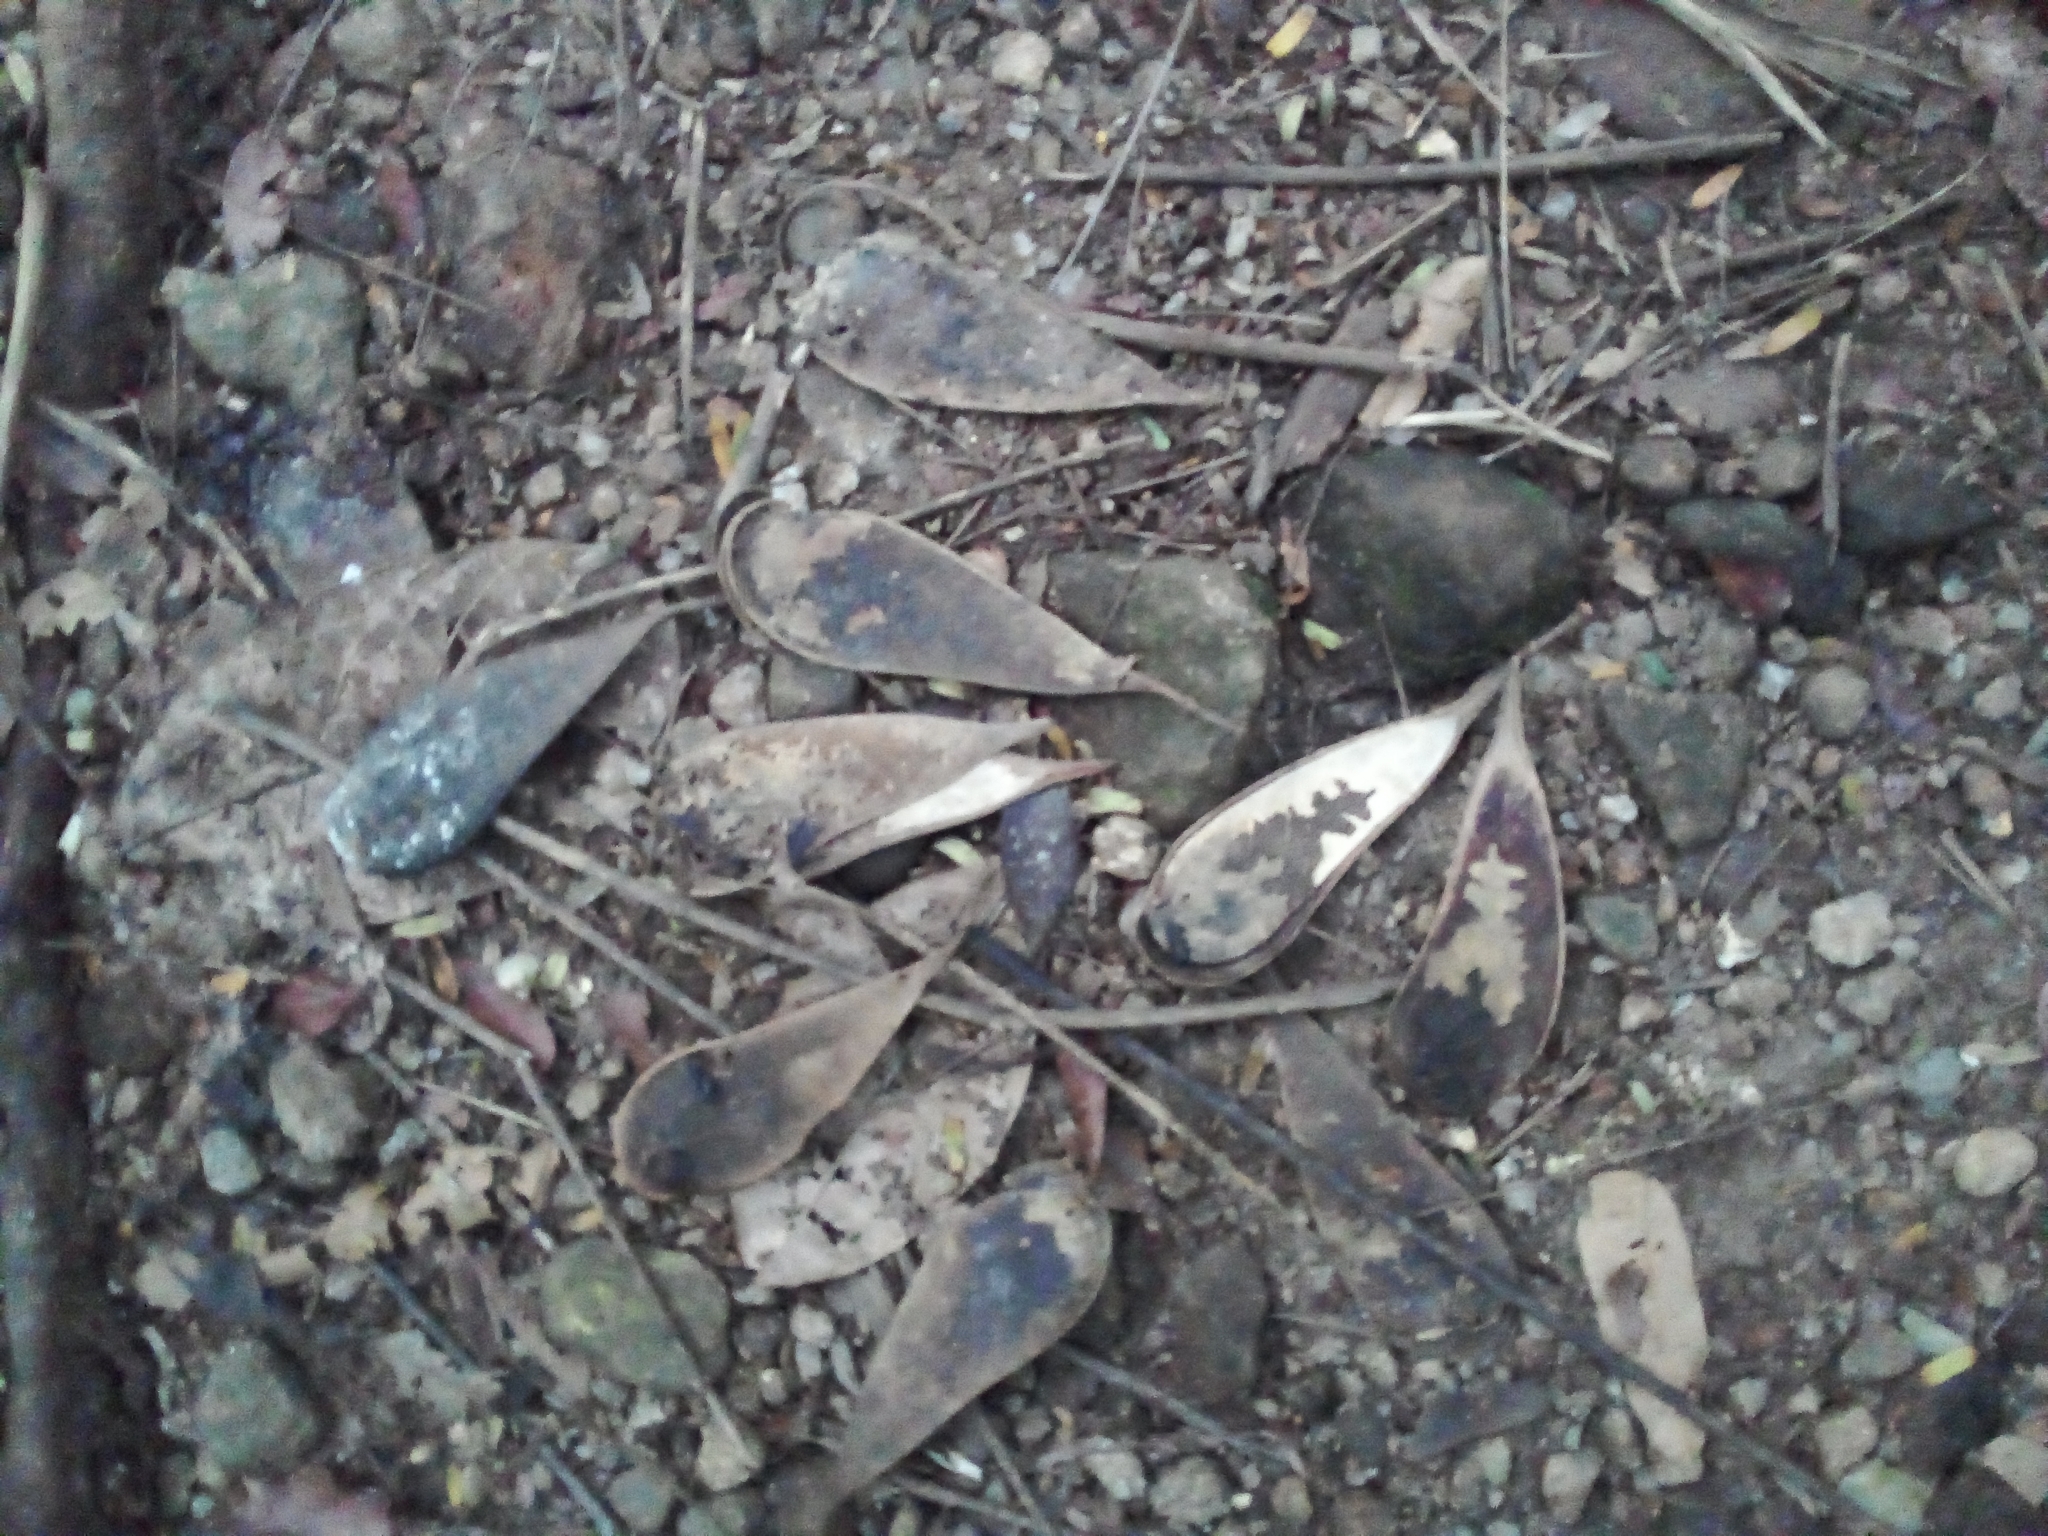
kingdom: Plantae
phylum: Tracheophyta
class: Magnoliopsida
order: Fabales
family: Fabaceae
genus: Schizolobium
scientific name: Schizolobium parahyba
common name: Brazilian firetree
